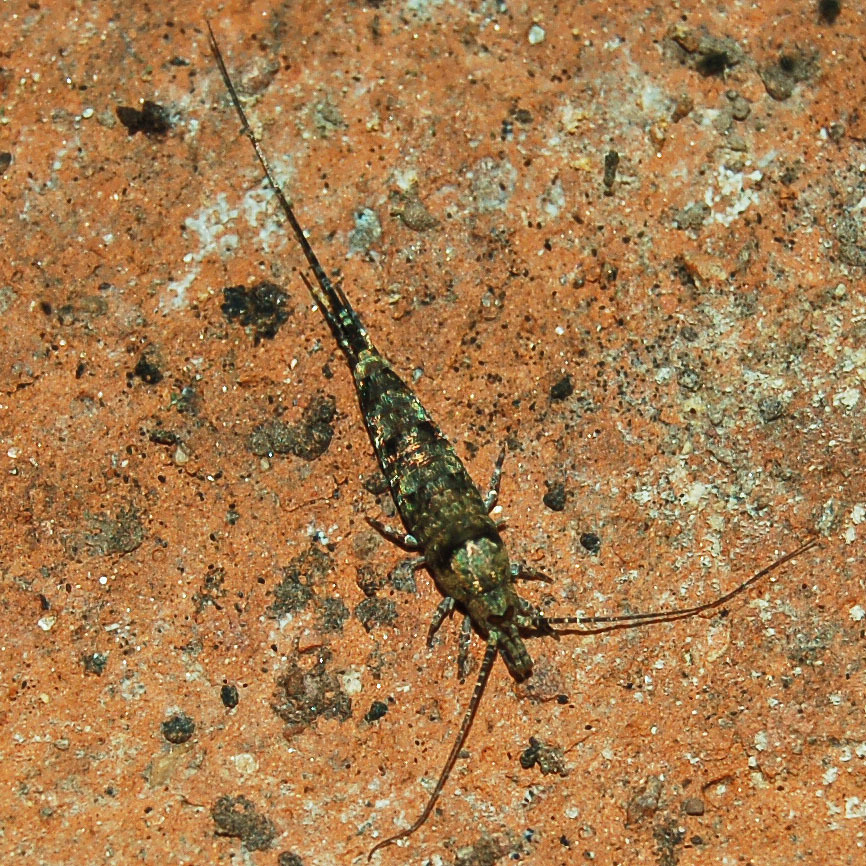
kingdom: Animalia
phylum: Arthropoda
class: Insecta
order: Archaeognatha
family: Machilidae
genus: Trigoniophthalmus
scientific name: Trigoniophthalmus alternatus
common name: Jumping bristletail
